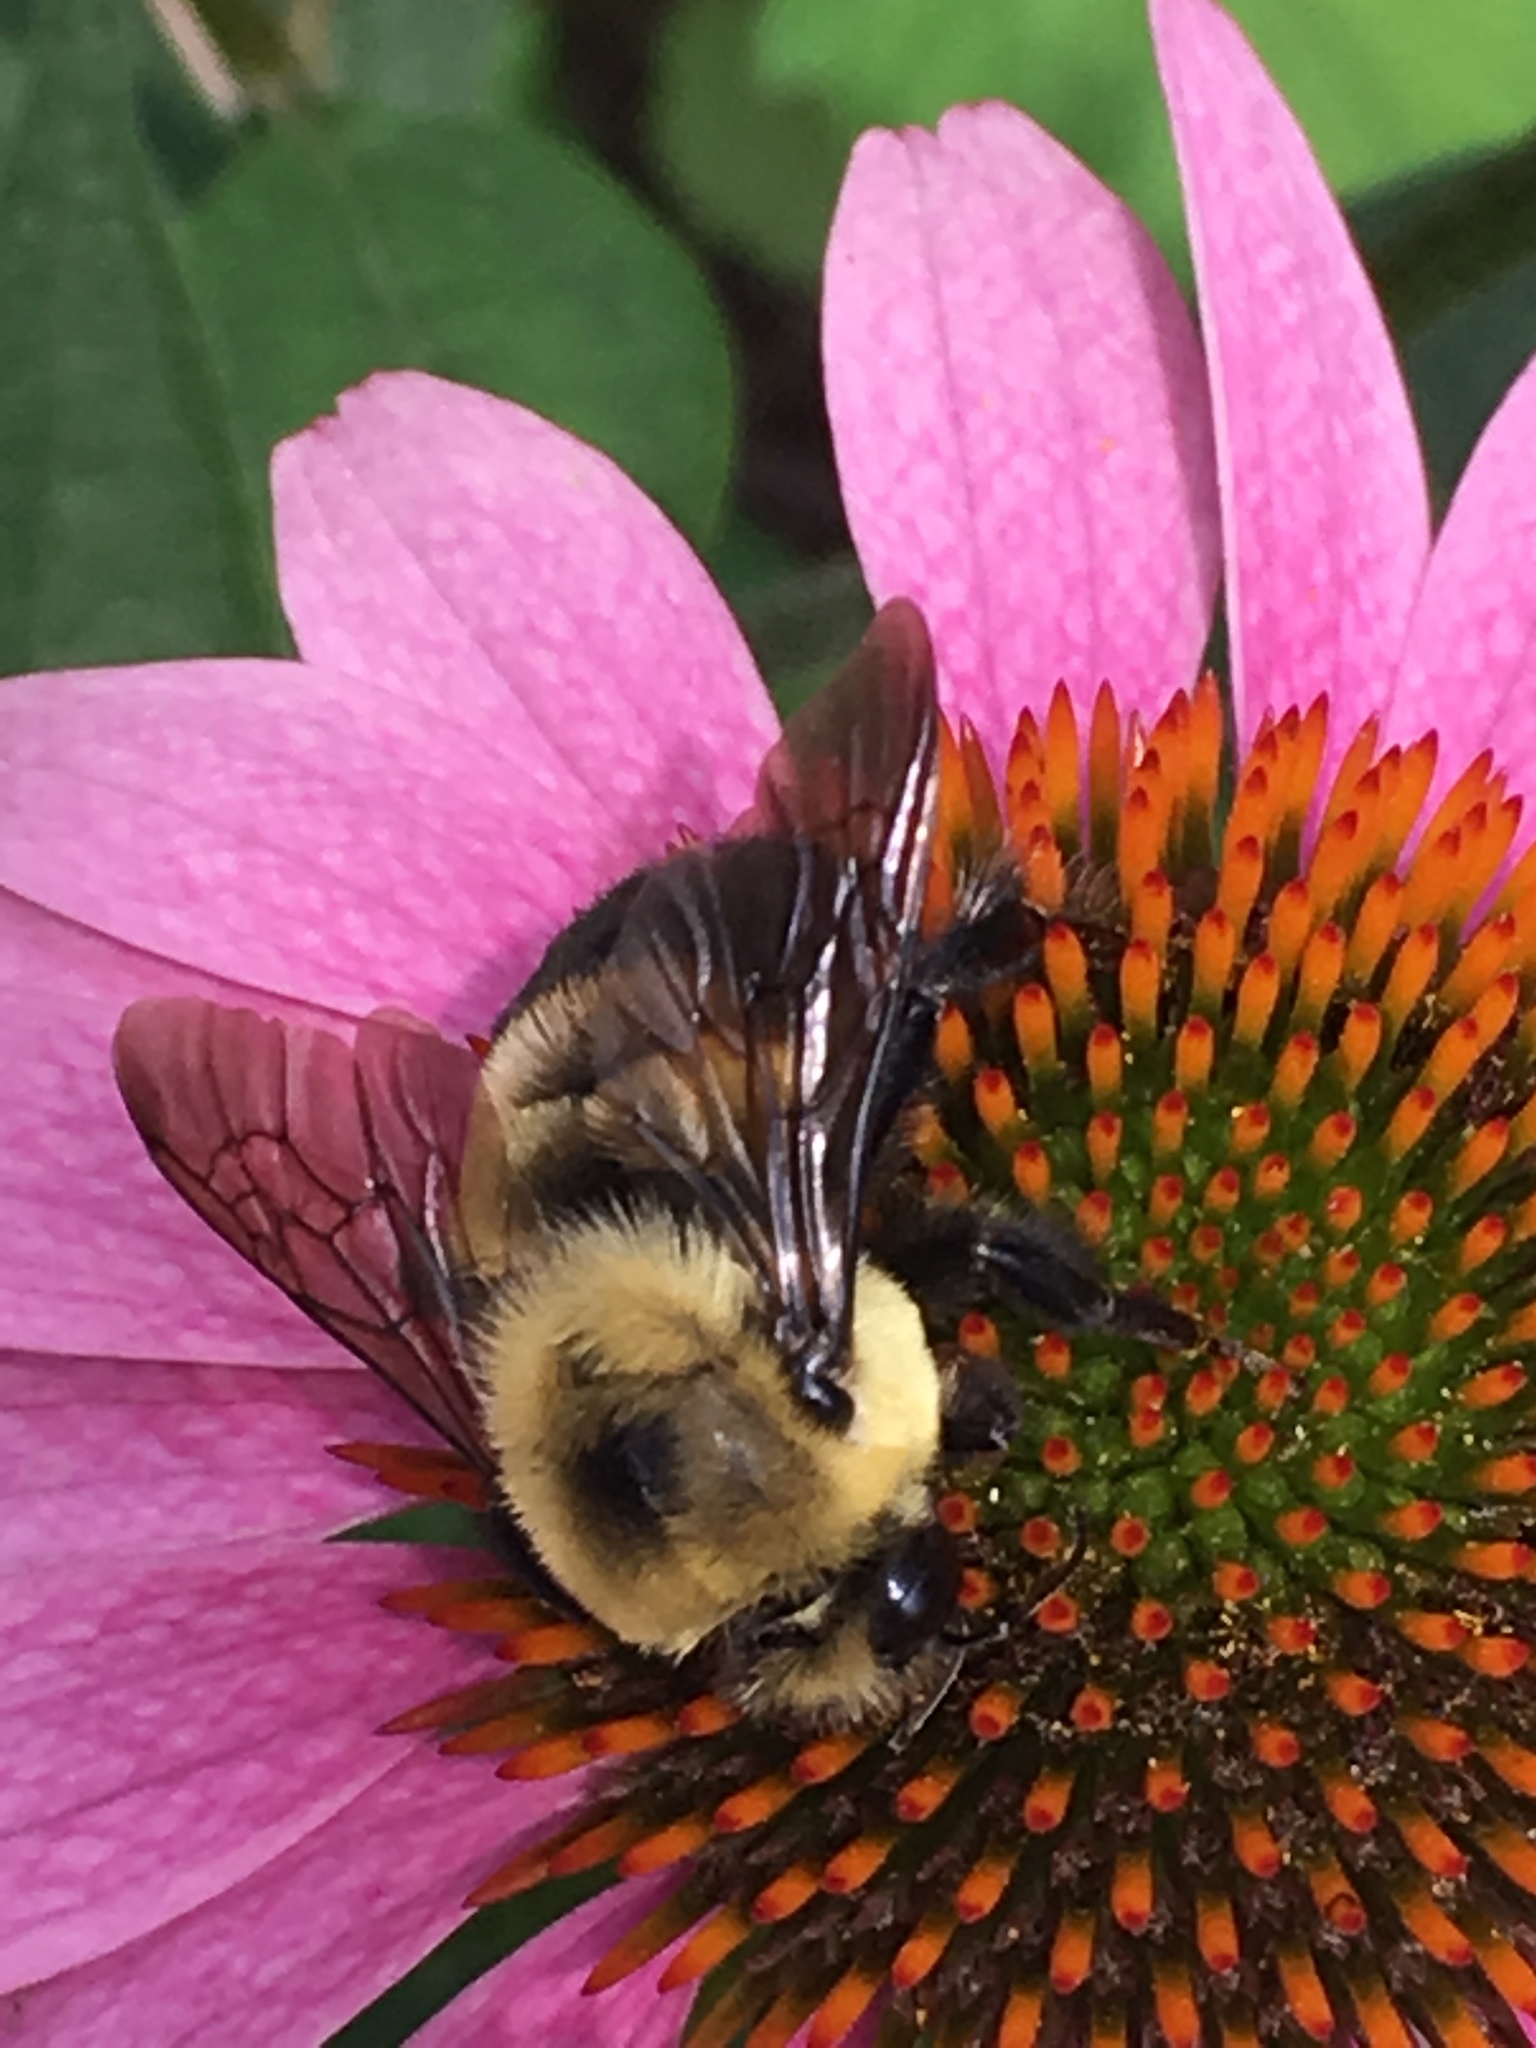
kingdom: Animalia
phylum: Arthropoda
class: Insecta
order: Hymenoptera
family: Apidae
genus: Bombus
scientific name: Bombus griseocollis
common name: Brown-belted bumble bee
